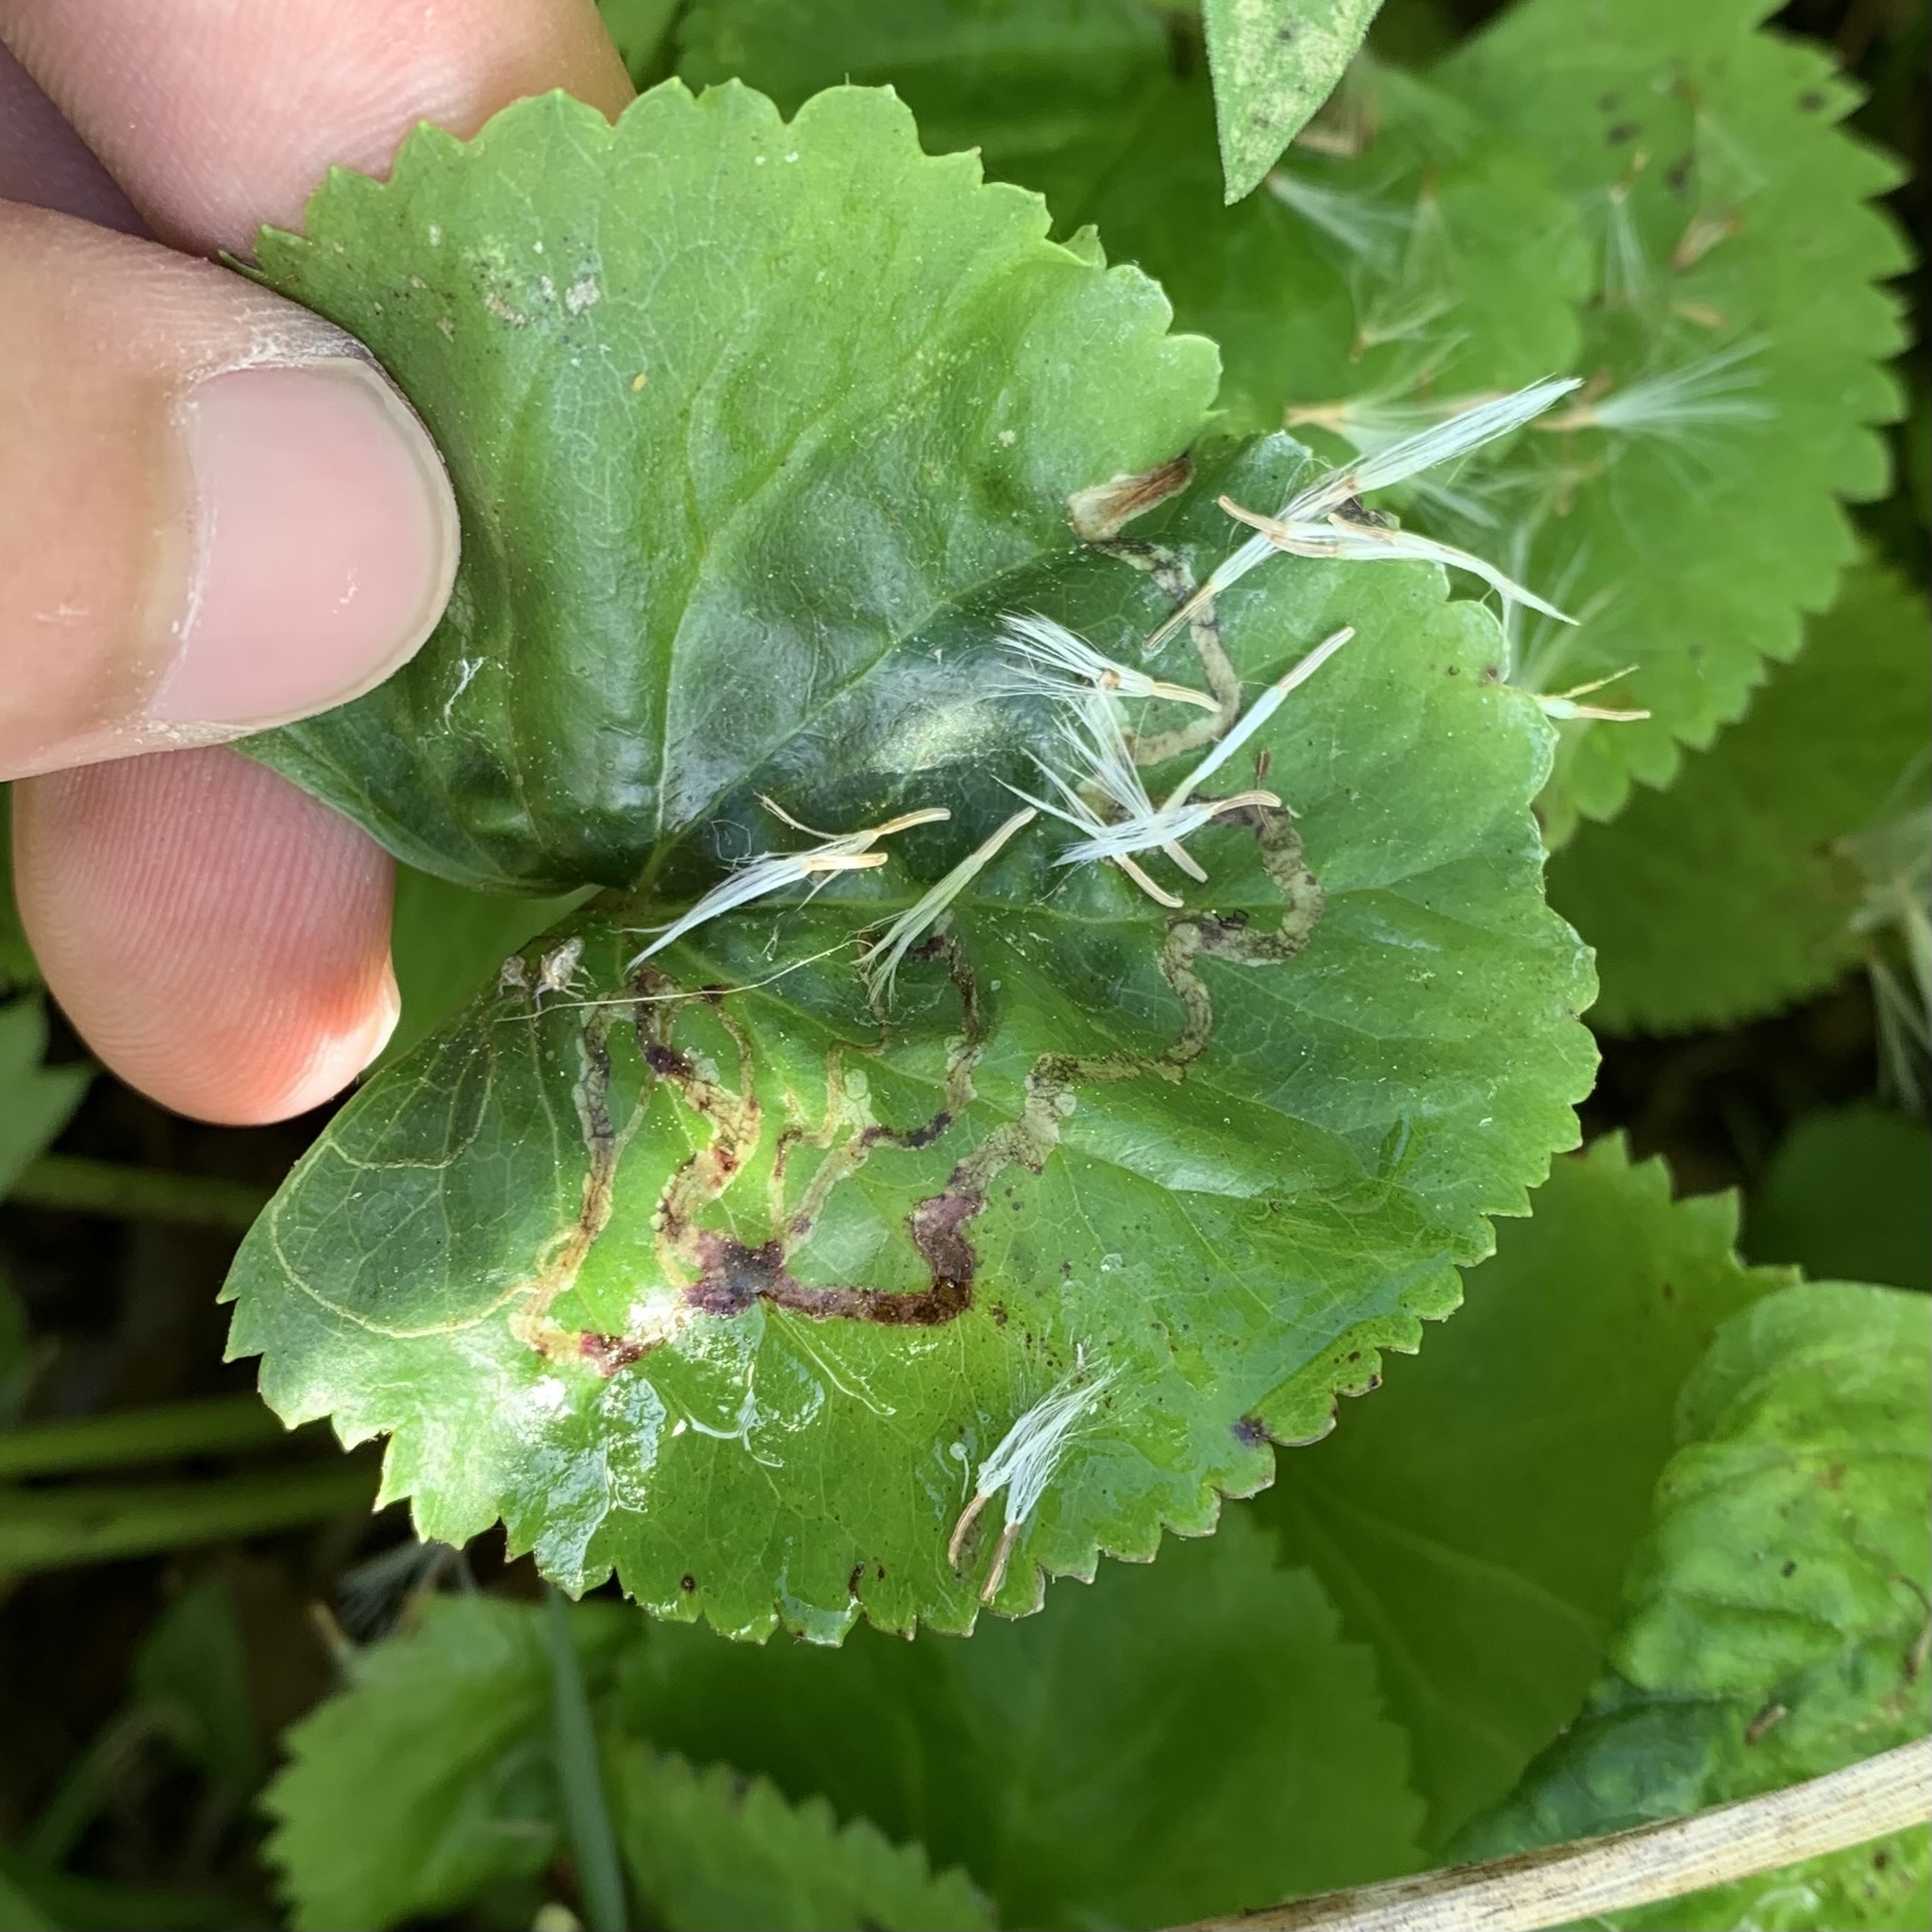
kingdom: Animalia
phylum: Arthropoda
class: Insecta
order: Lepidoptera
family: Gracillariidae
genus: Phyllocnistis
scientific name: Phyllocnistis insignis
